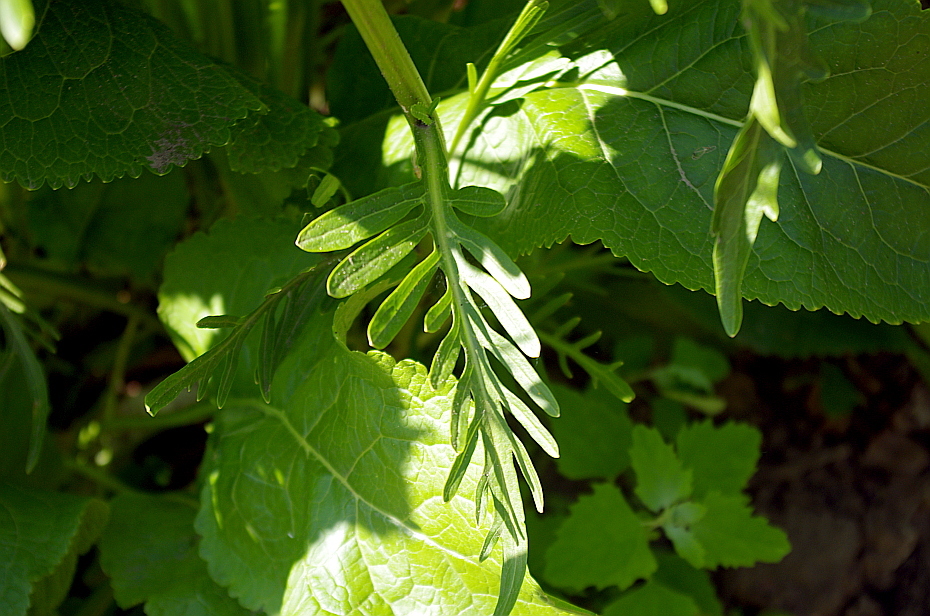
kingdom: Plantae
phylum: Tracheophyta
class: Magnoliopsida
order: Brassicales
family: Brassicaceae
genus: Armoracia
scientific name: Armoracia rusticana
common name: Horseradish
